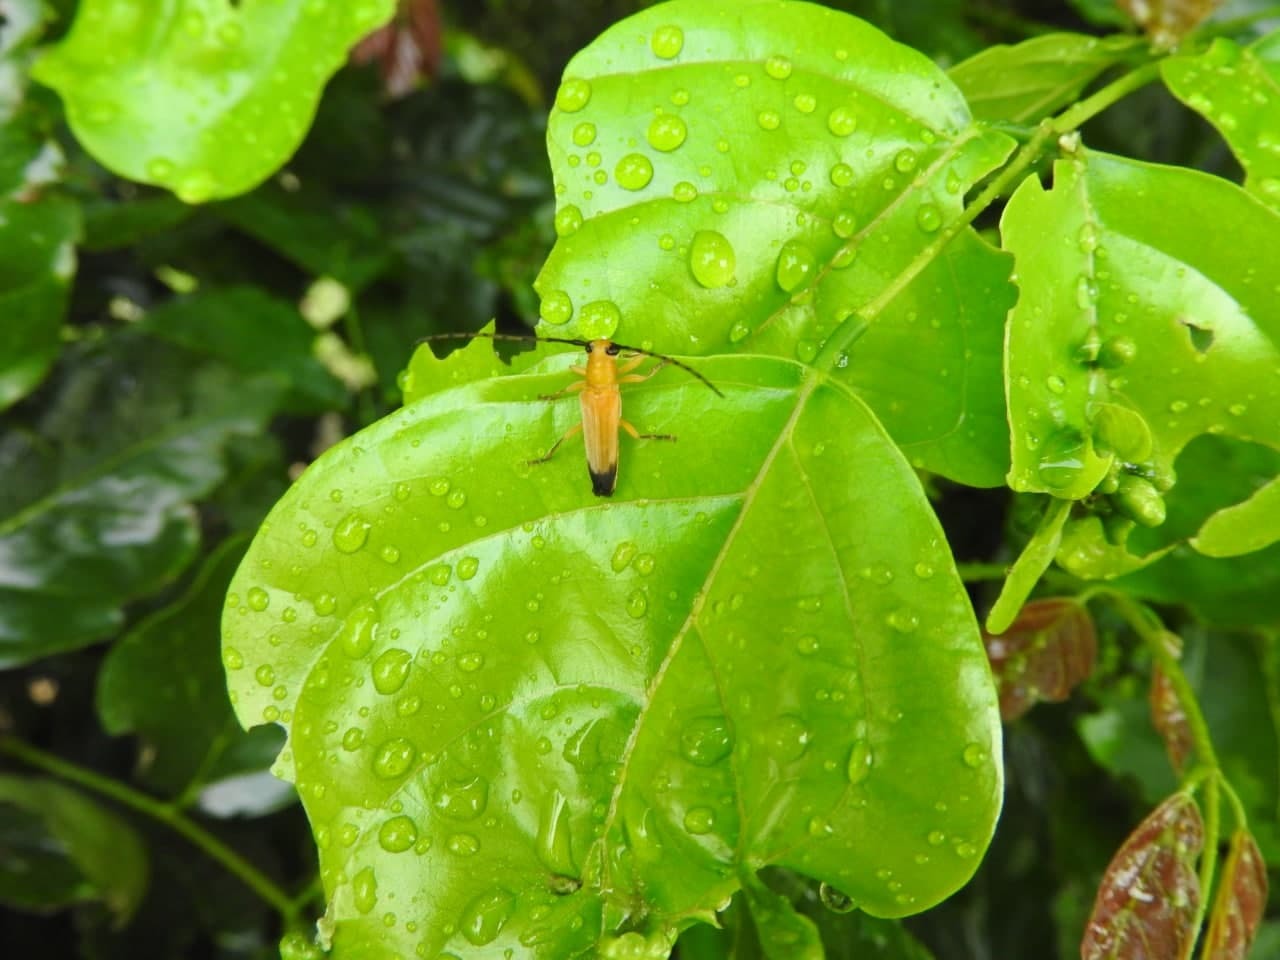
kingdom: Animalia
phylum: Arthropoda
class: Insecta
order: Coleoptera
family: Cerambycidae
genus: Nupserha
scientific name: Nupserha lenita
